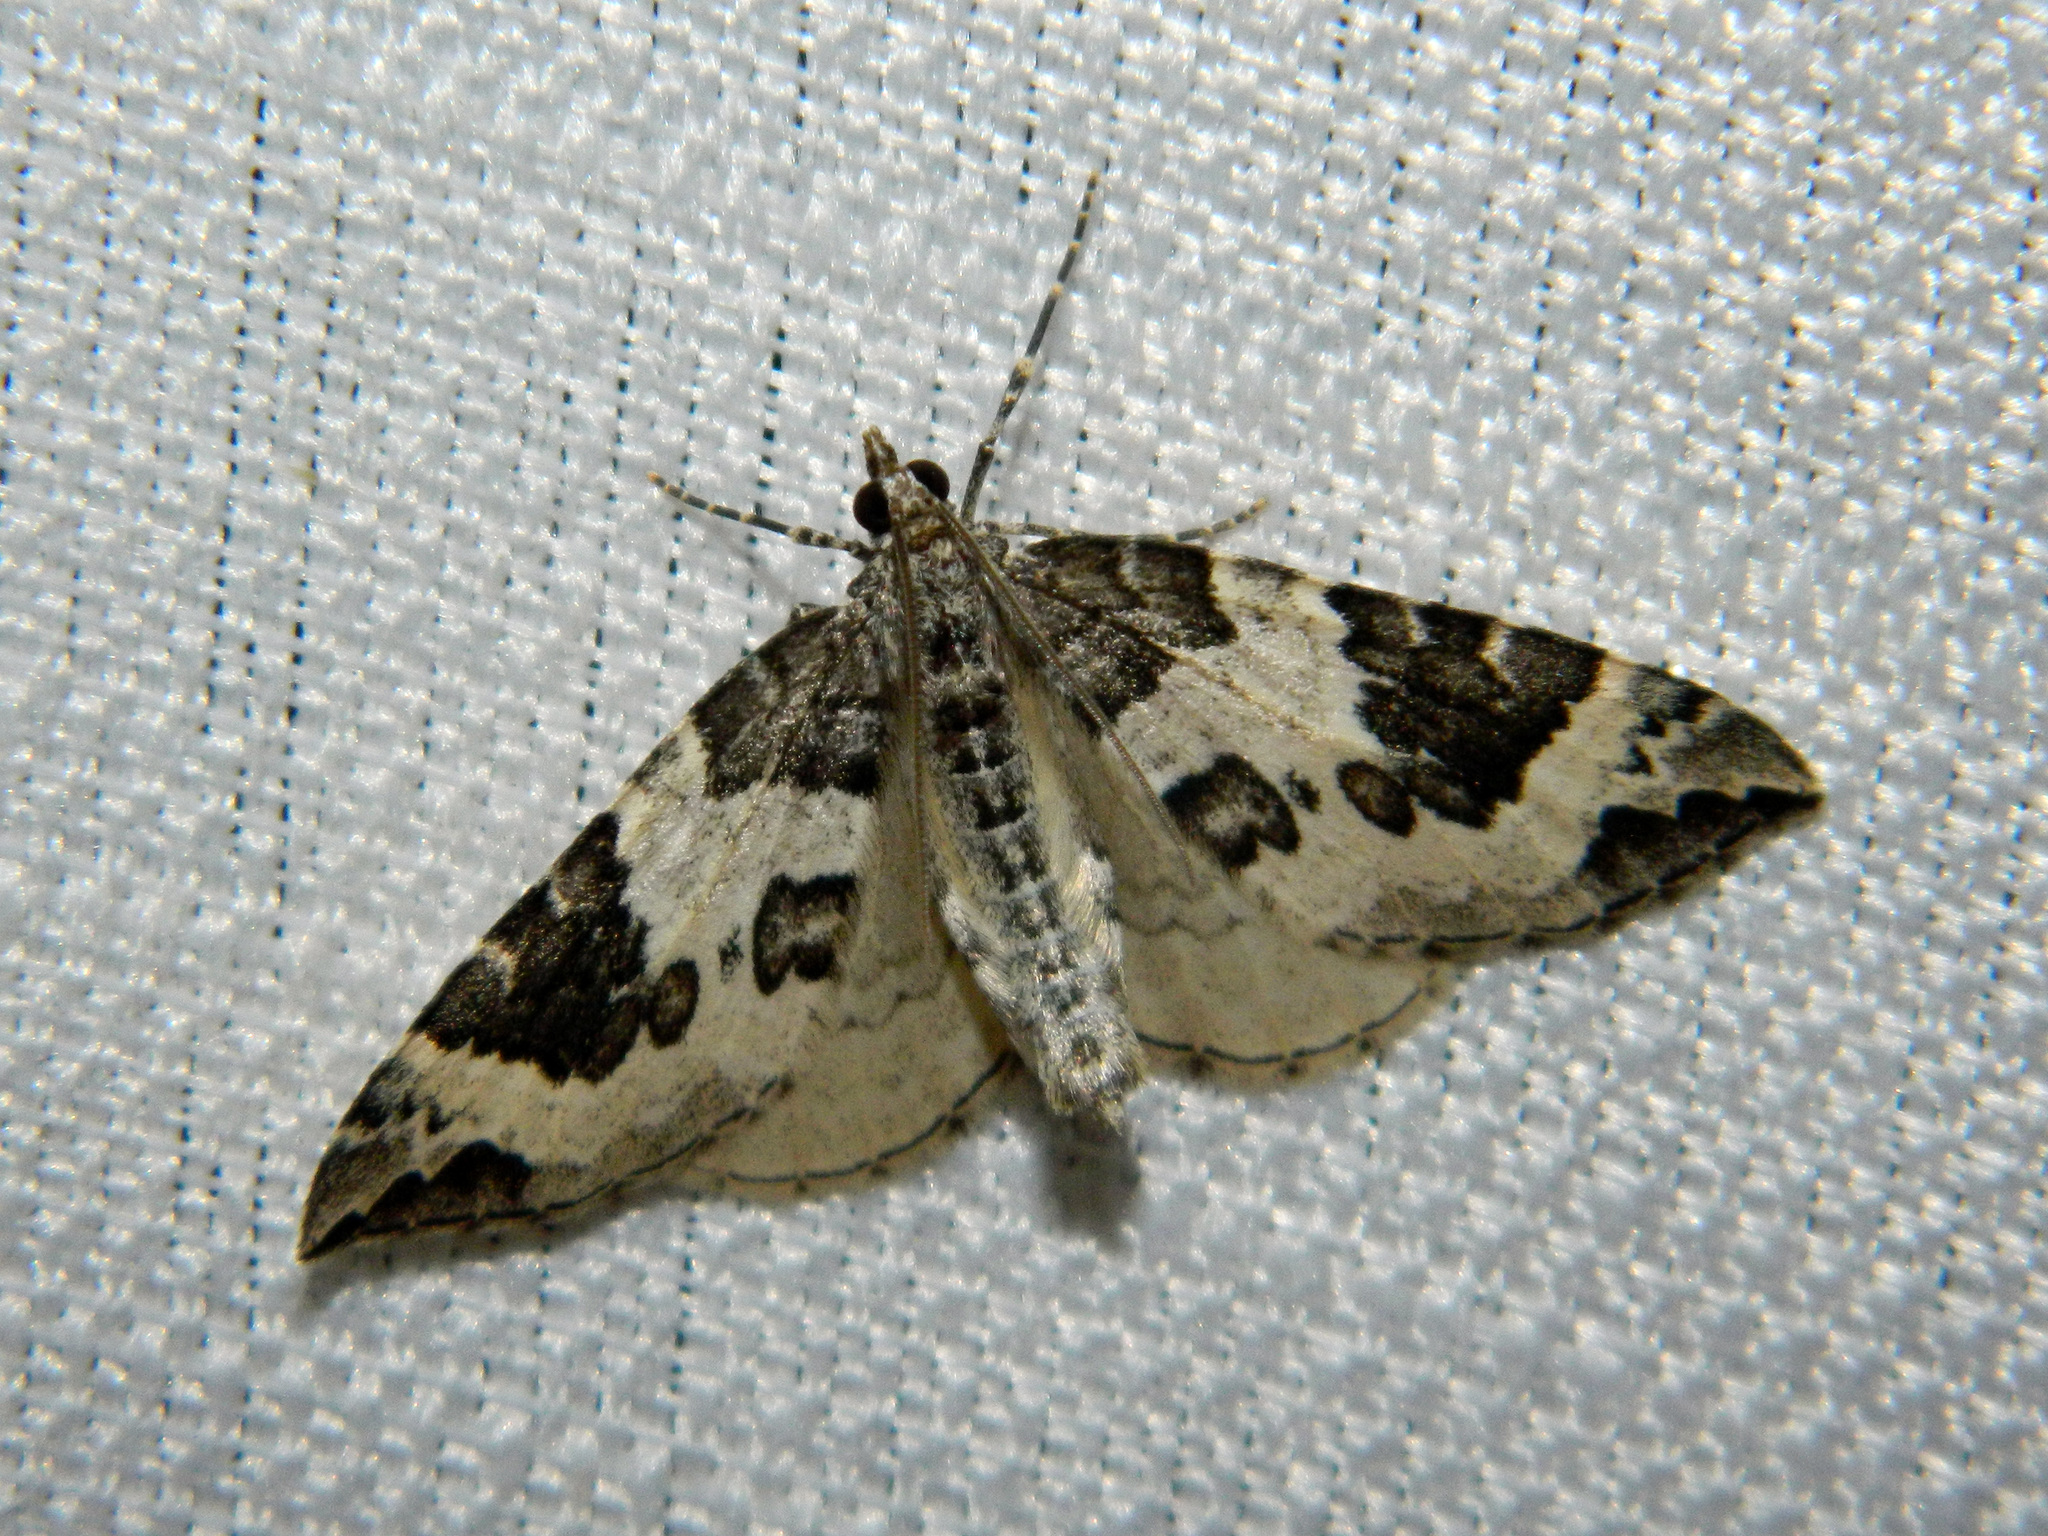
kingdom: Animalia
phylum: Arthropoda
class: Insecta
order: Lepidoptera
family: Geometridae
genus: Eulithis
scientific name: Eulithis explanata
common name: White eulithis
